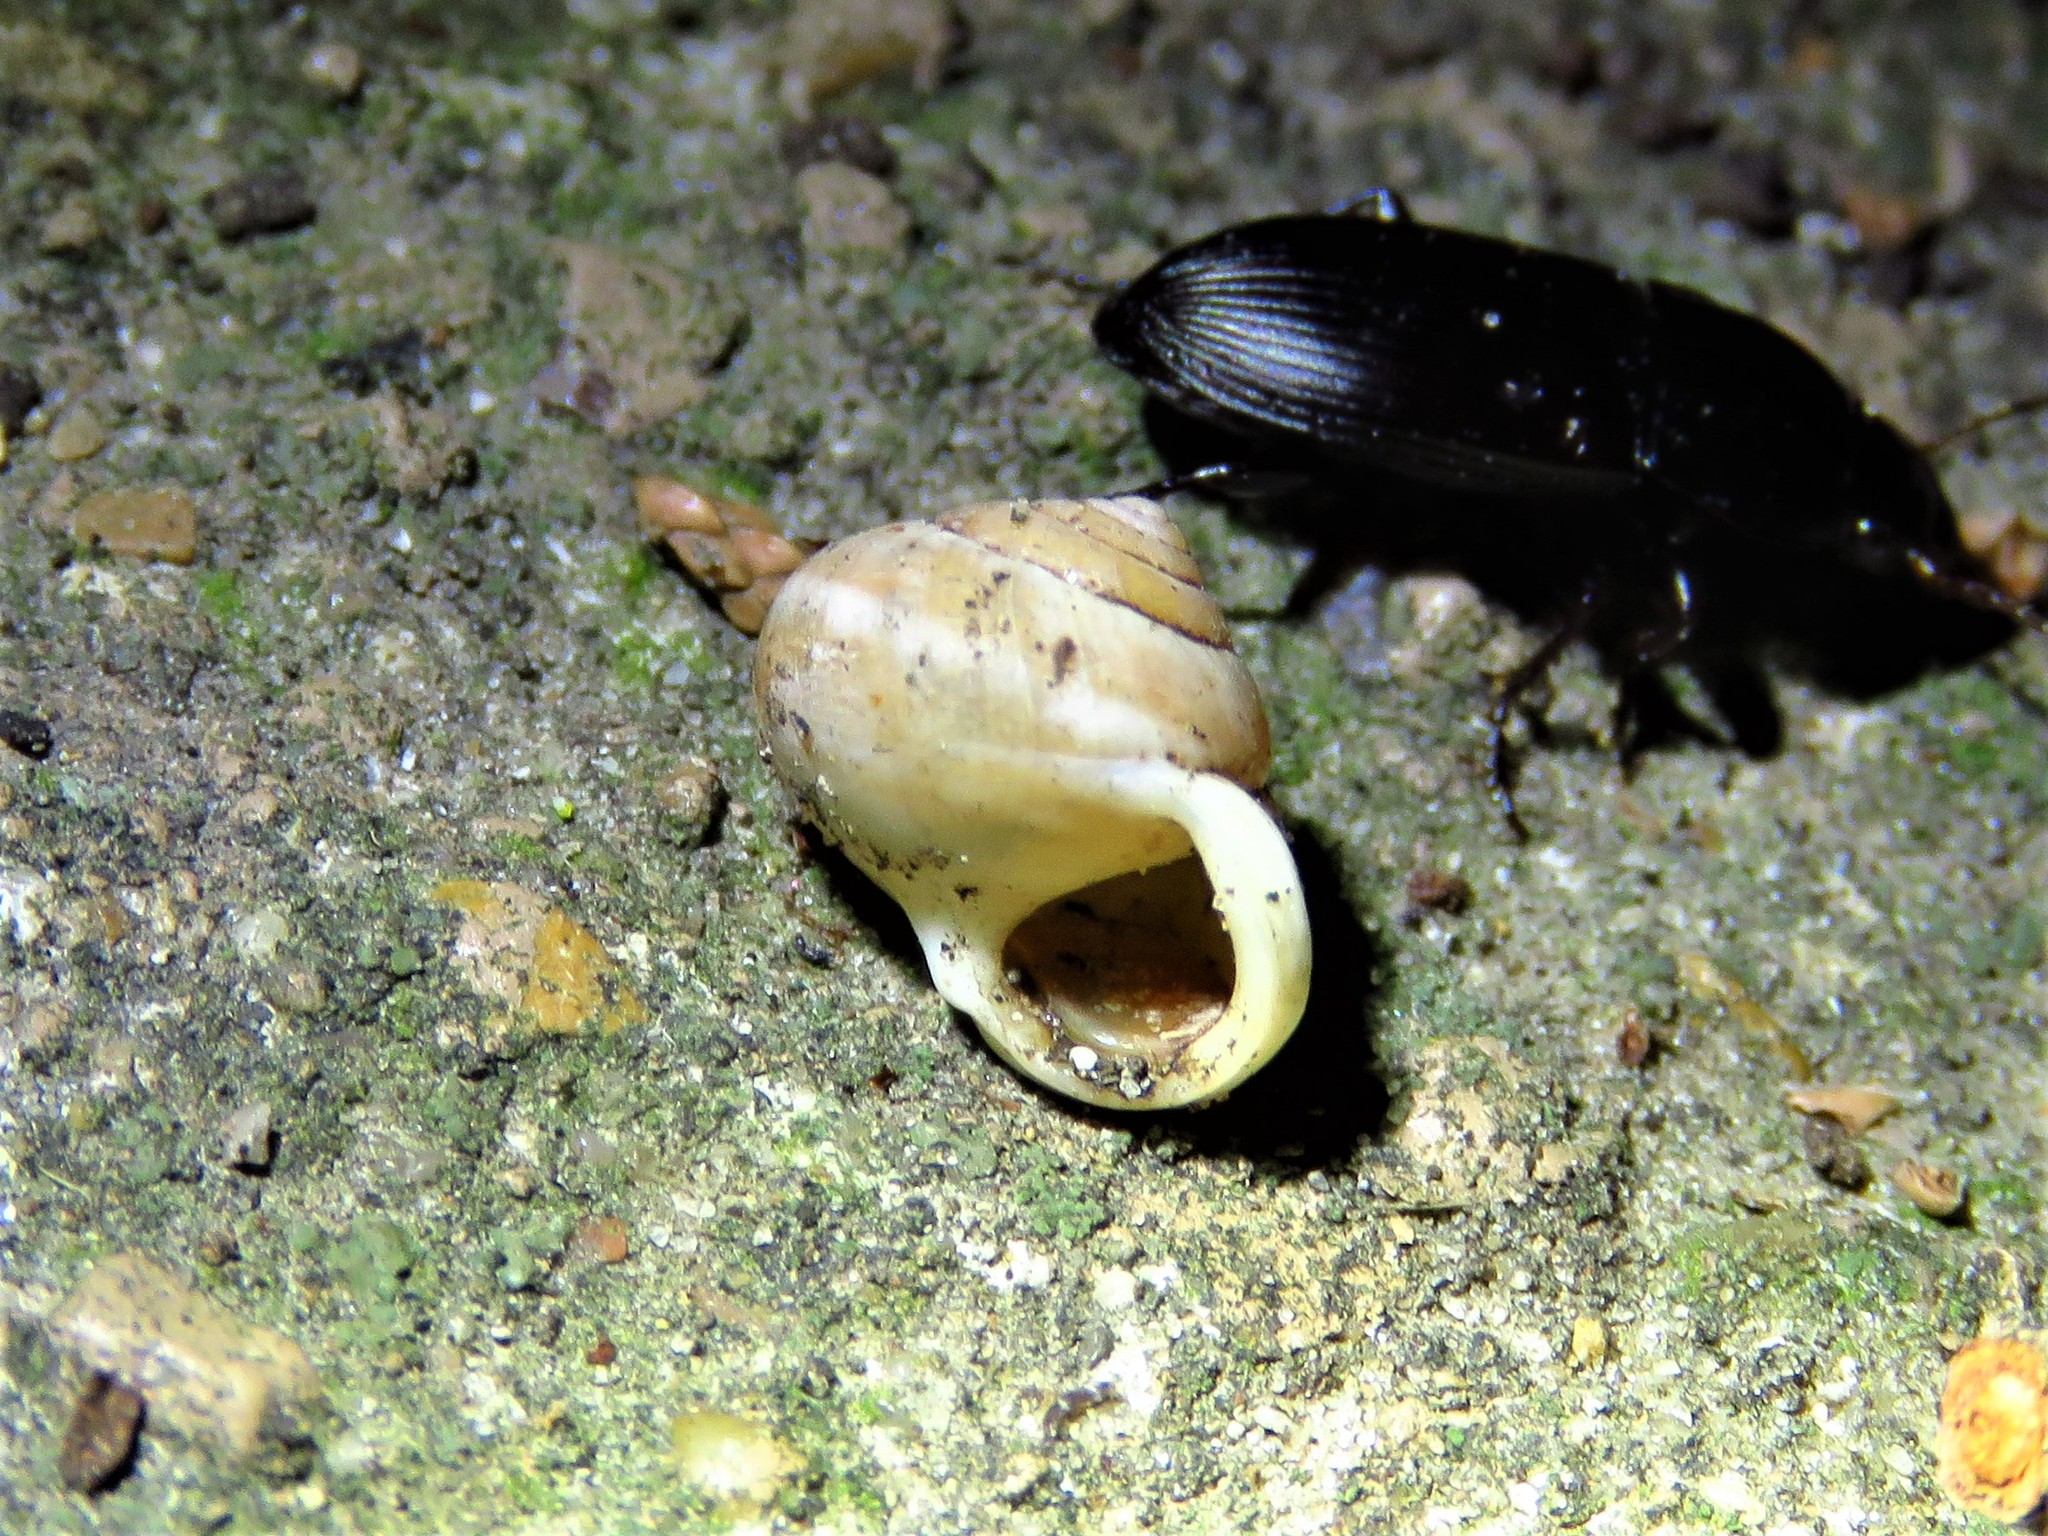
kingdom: Animalia
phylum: Mollusca
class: Gastropoda
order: Cycloneritida
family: Helicinidae
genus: Helicina
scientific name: Helicina orbiculata
